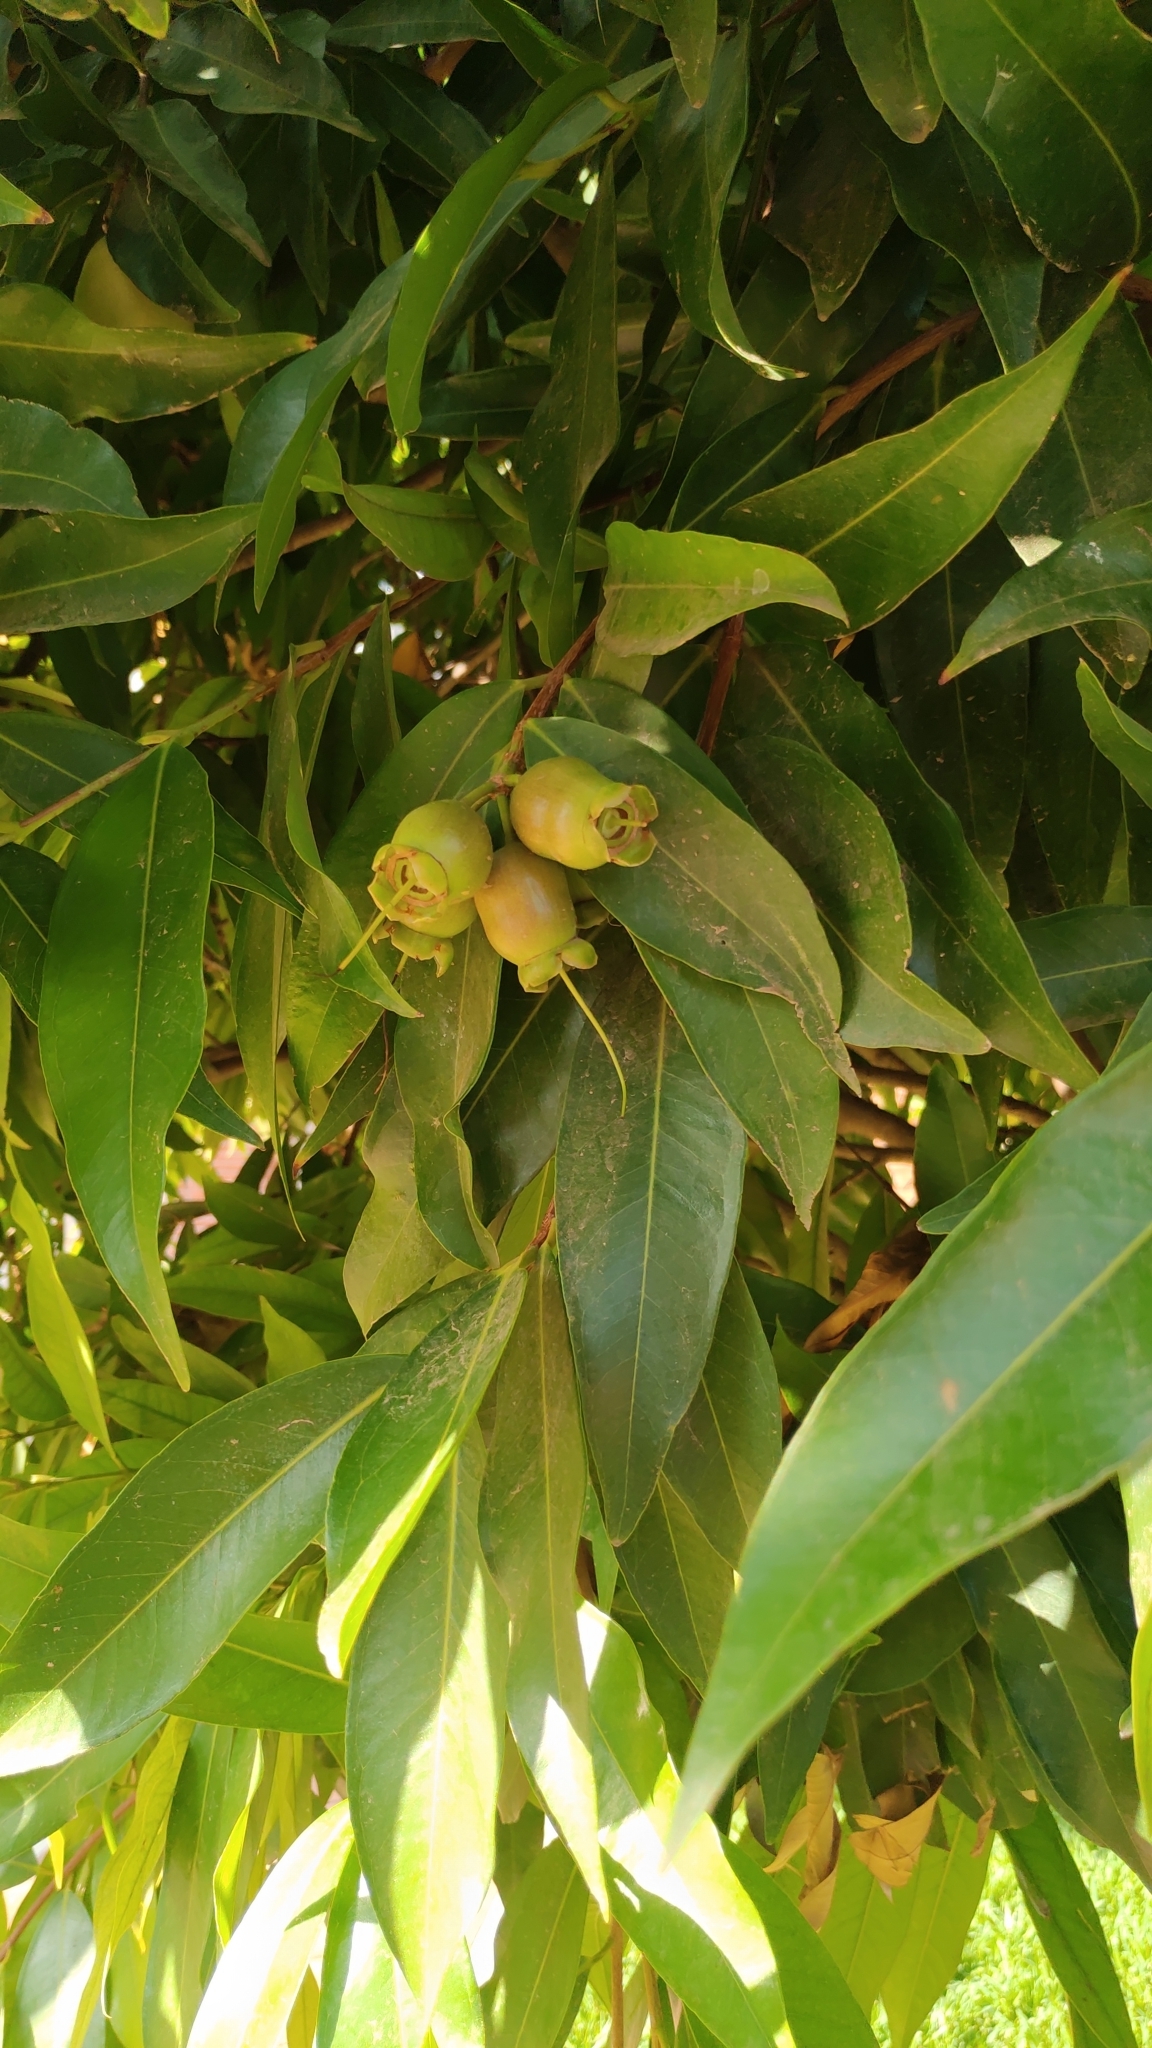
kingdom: Plantae
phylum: Tracheophyta
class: Magnoliopsida
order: Myrtales
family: Myrtaceae
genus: Syzygium
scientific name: Syzygium jambos
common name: Malabar plum
